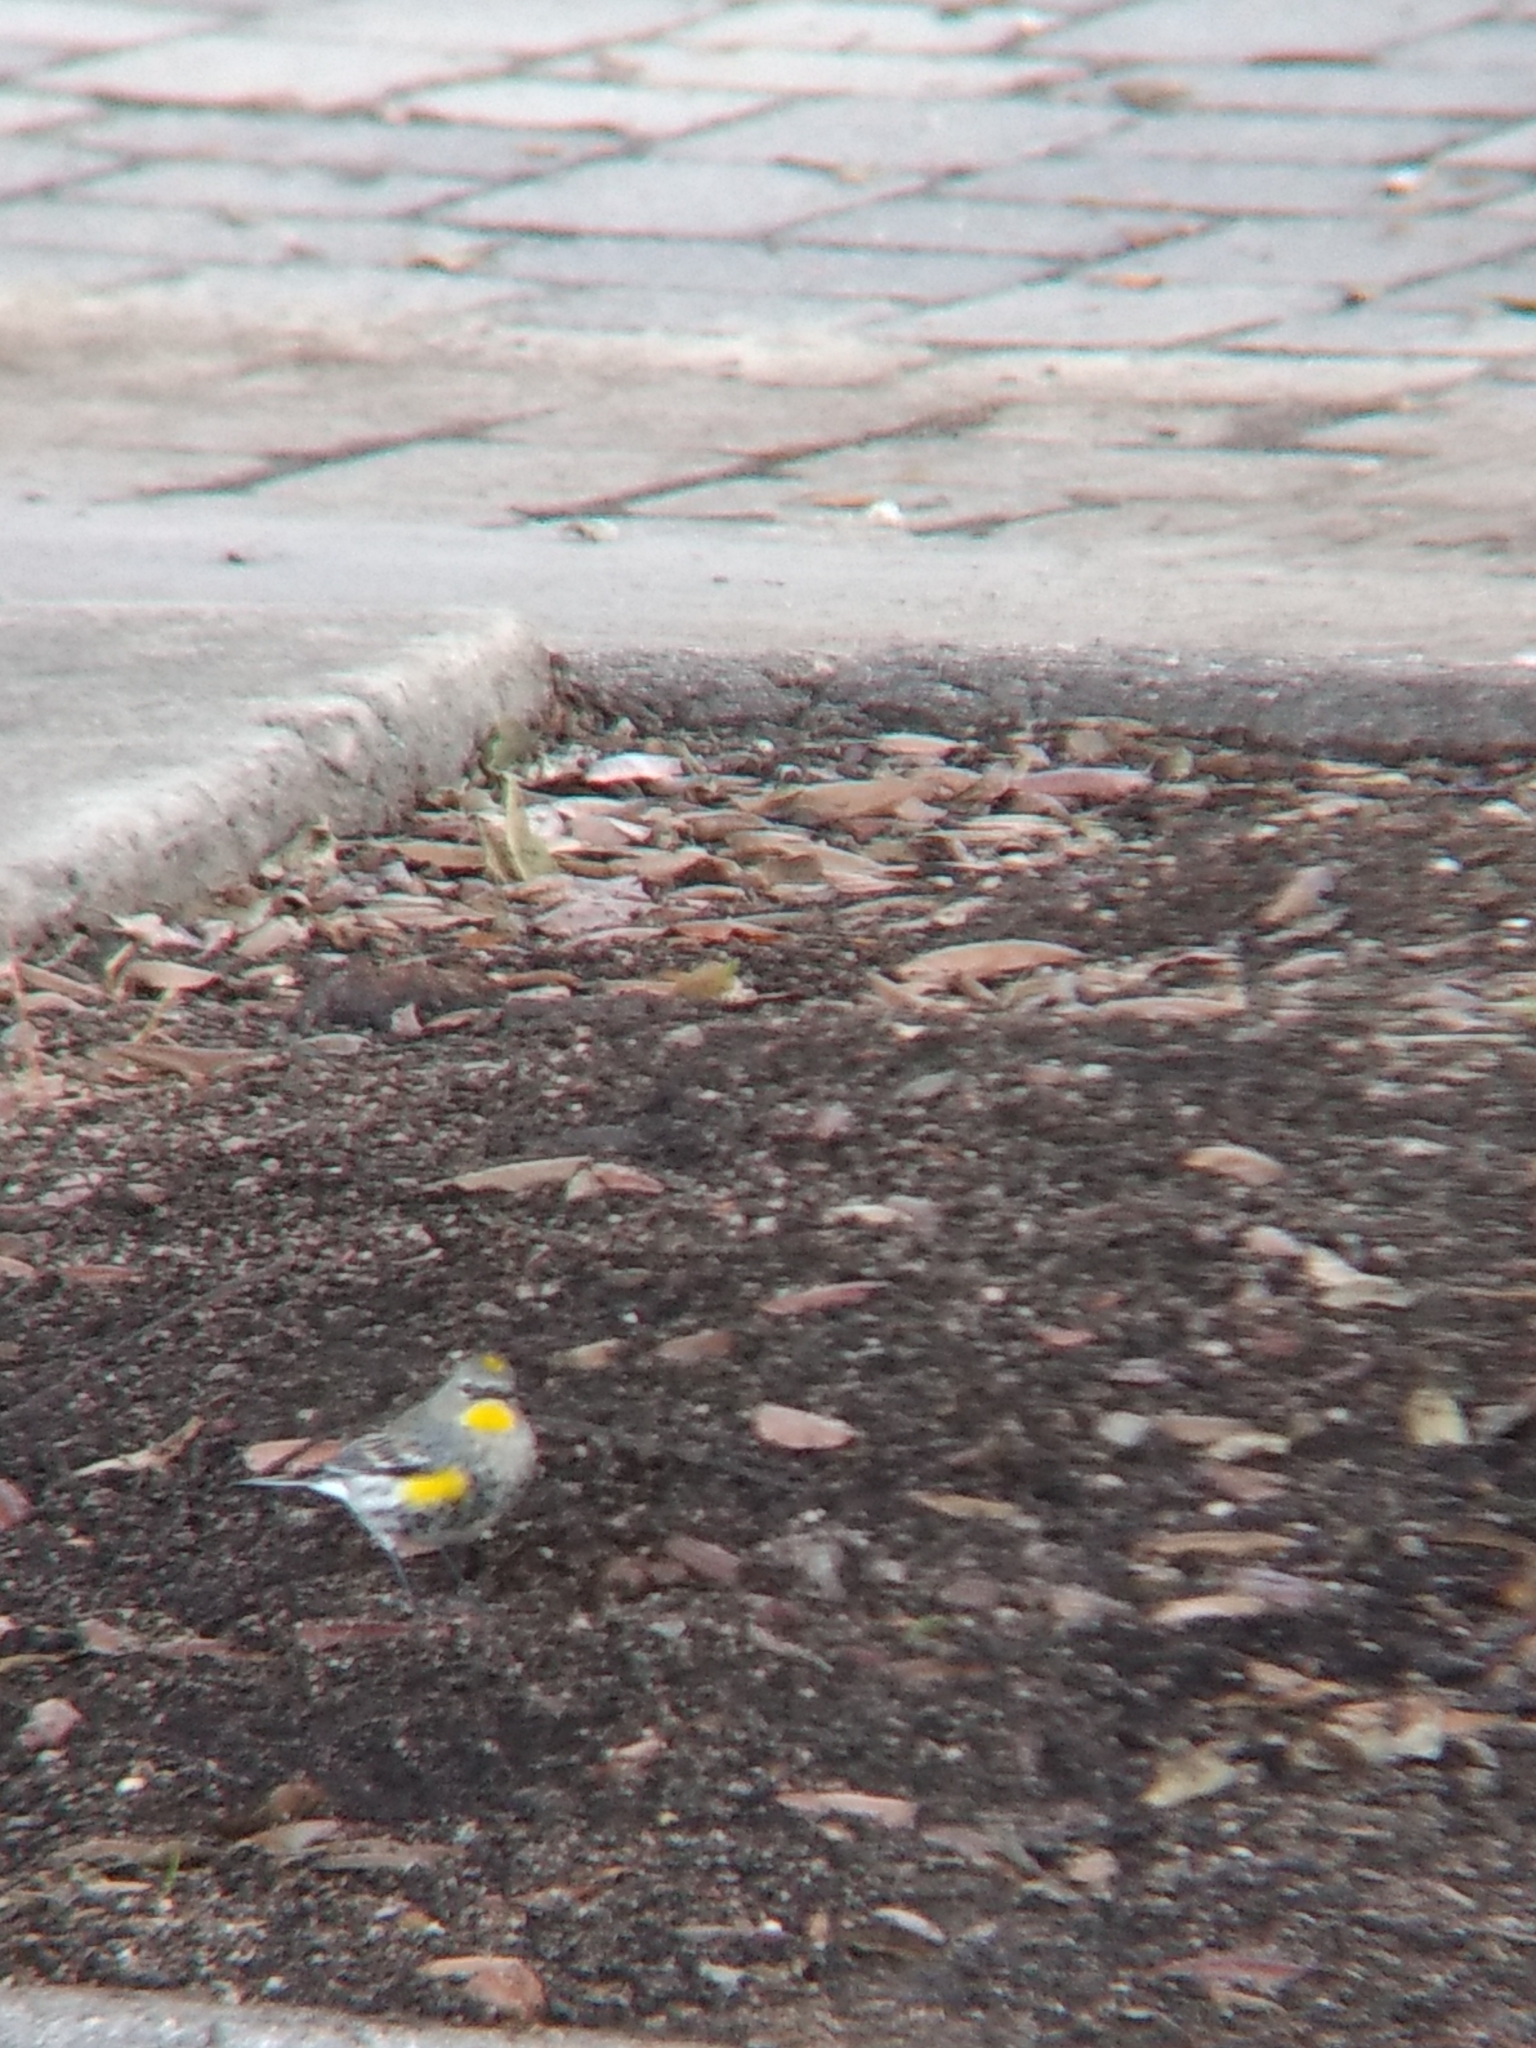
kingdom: Animalia
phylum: Chordata
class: Aves
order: Passeriformes
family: Parulidae
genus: Setophaga
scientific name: Setophaga coronata
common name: Myrtle warbler
